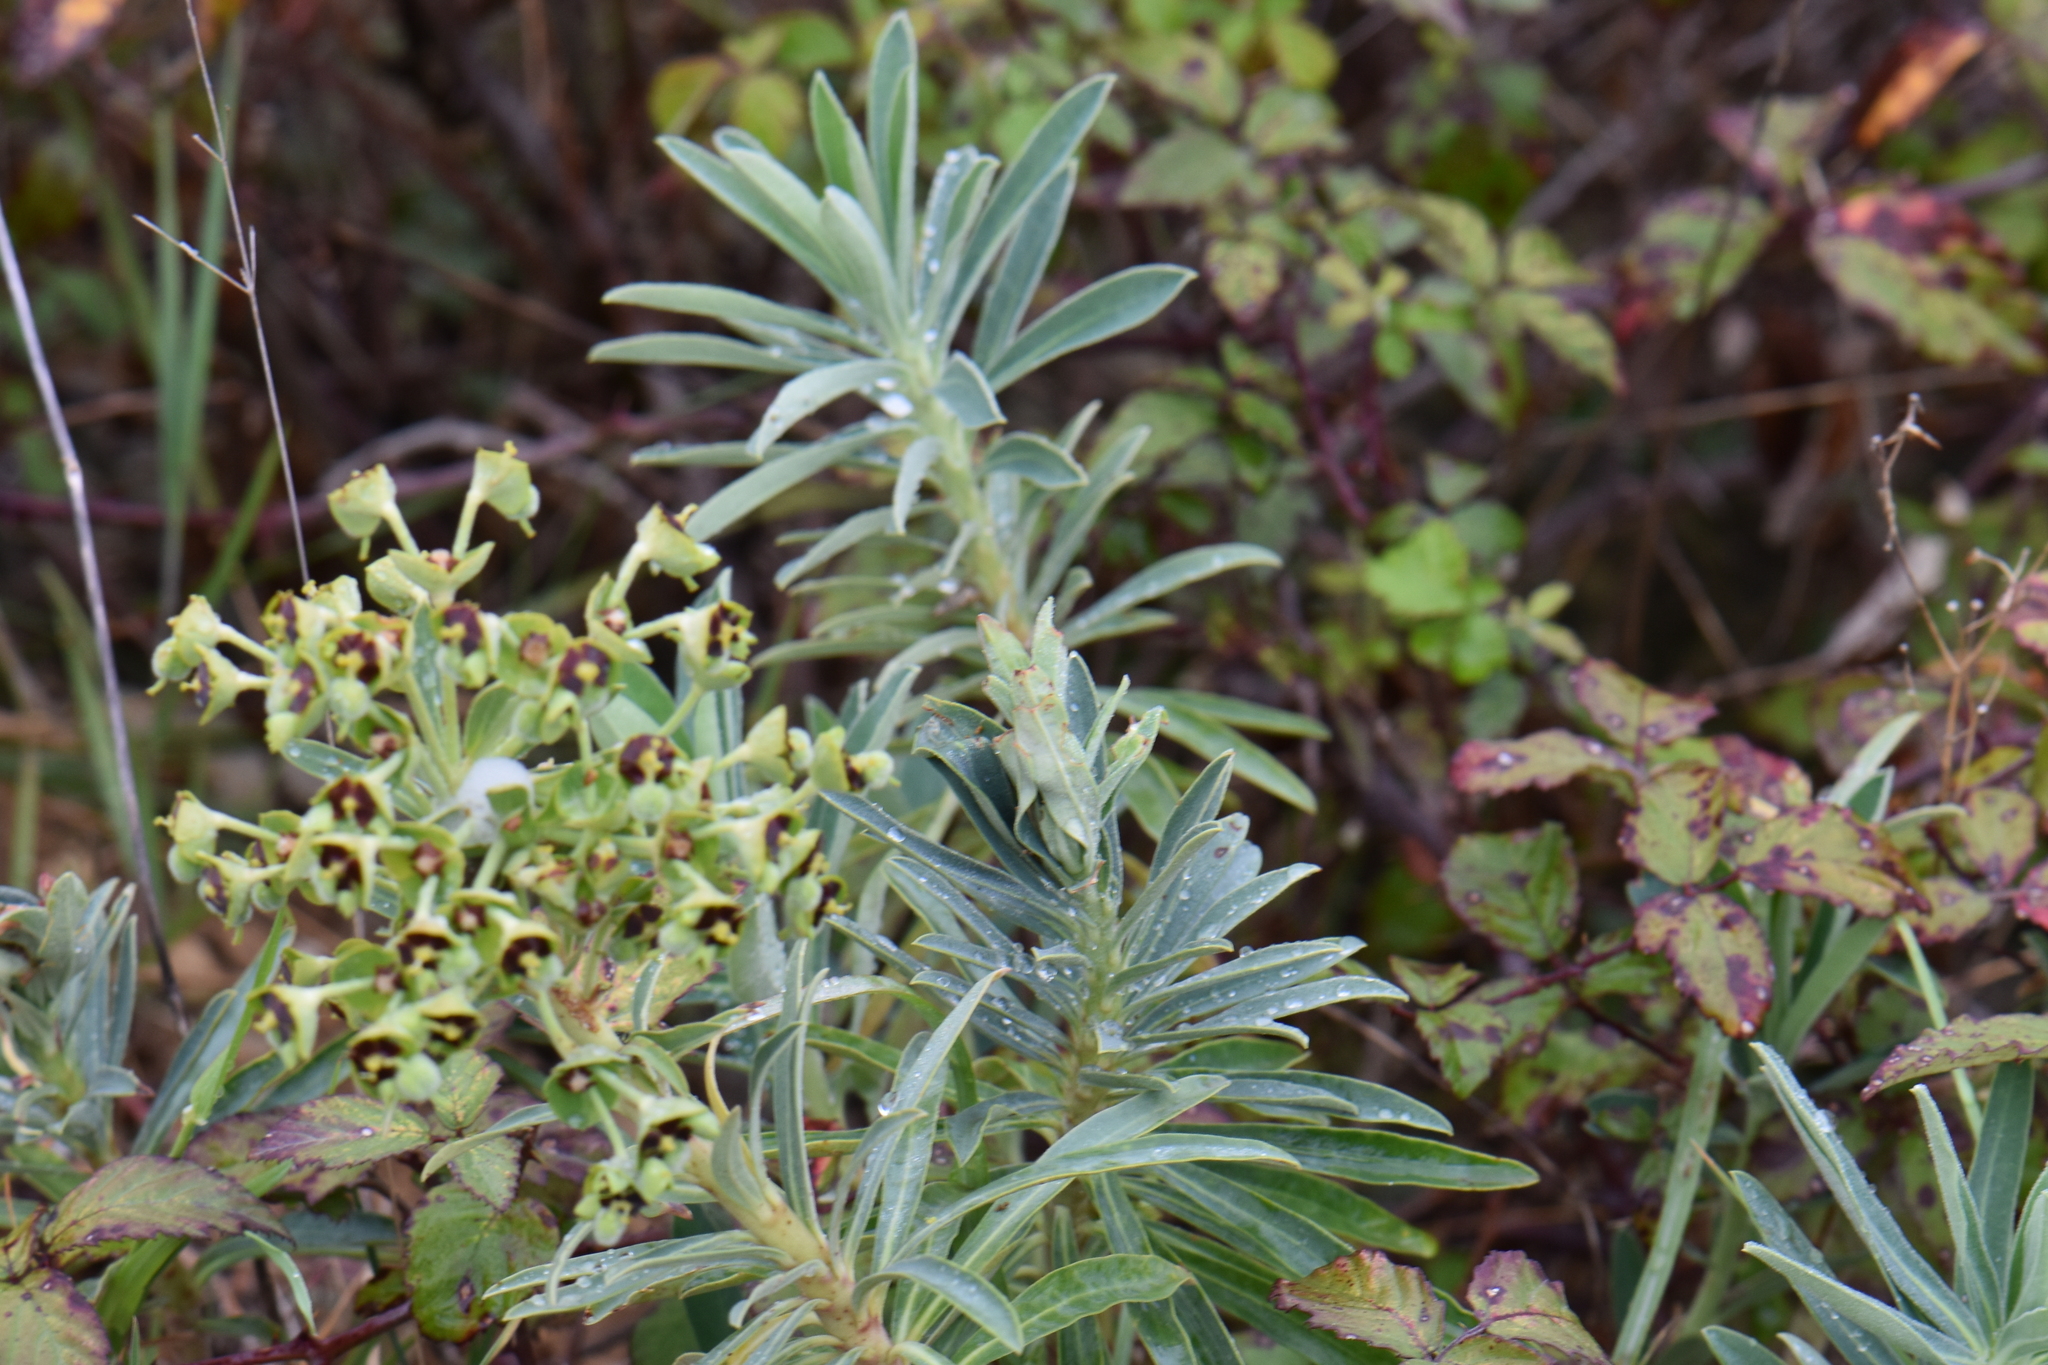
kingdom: Plantae
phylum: Tracheophyta
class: Magnoliopsida
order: Malpighiales
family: Euphorbiaceae
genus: Euphorbia
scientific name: Euphorbia characias
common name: Mediterranean spurge
